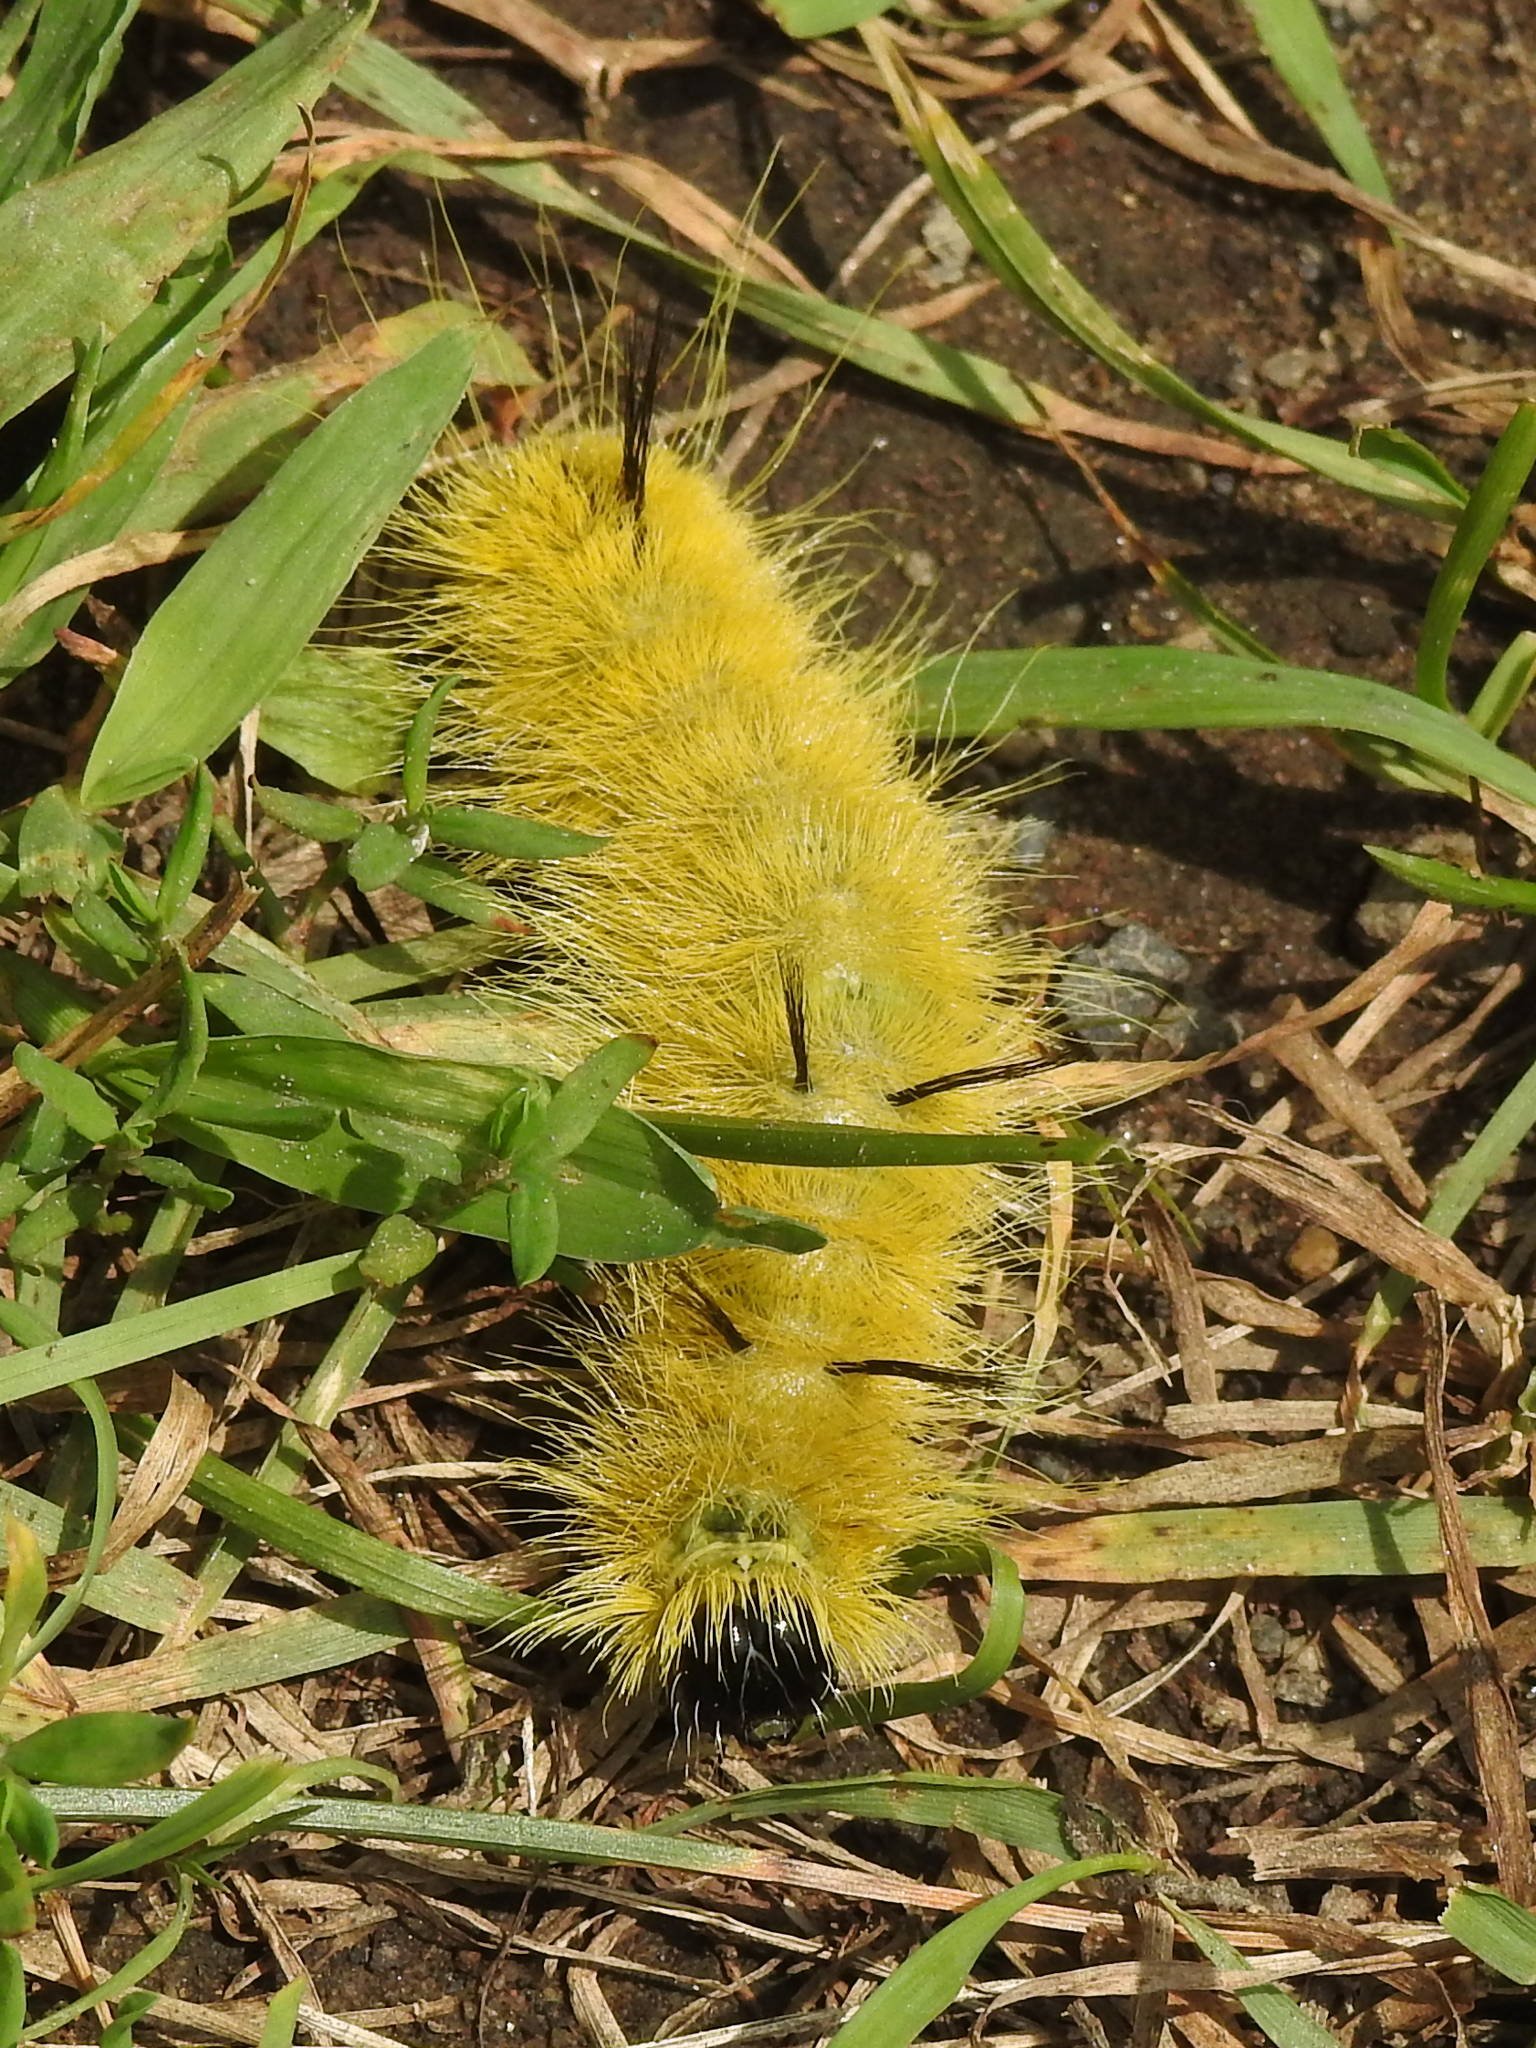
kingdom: Animalia
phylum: Arthropoda
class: Insecta
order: Lepidoptera
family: Noctuidae
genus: Acronicta
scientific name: Acronicta americana
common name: American dagger
